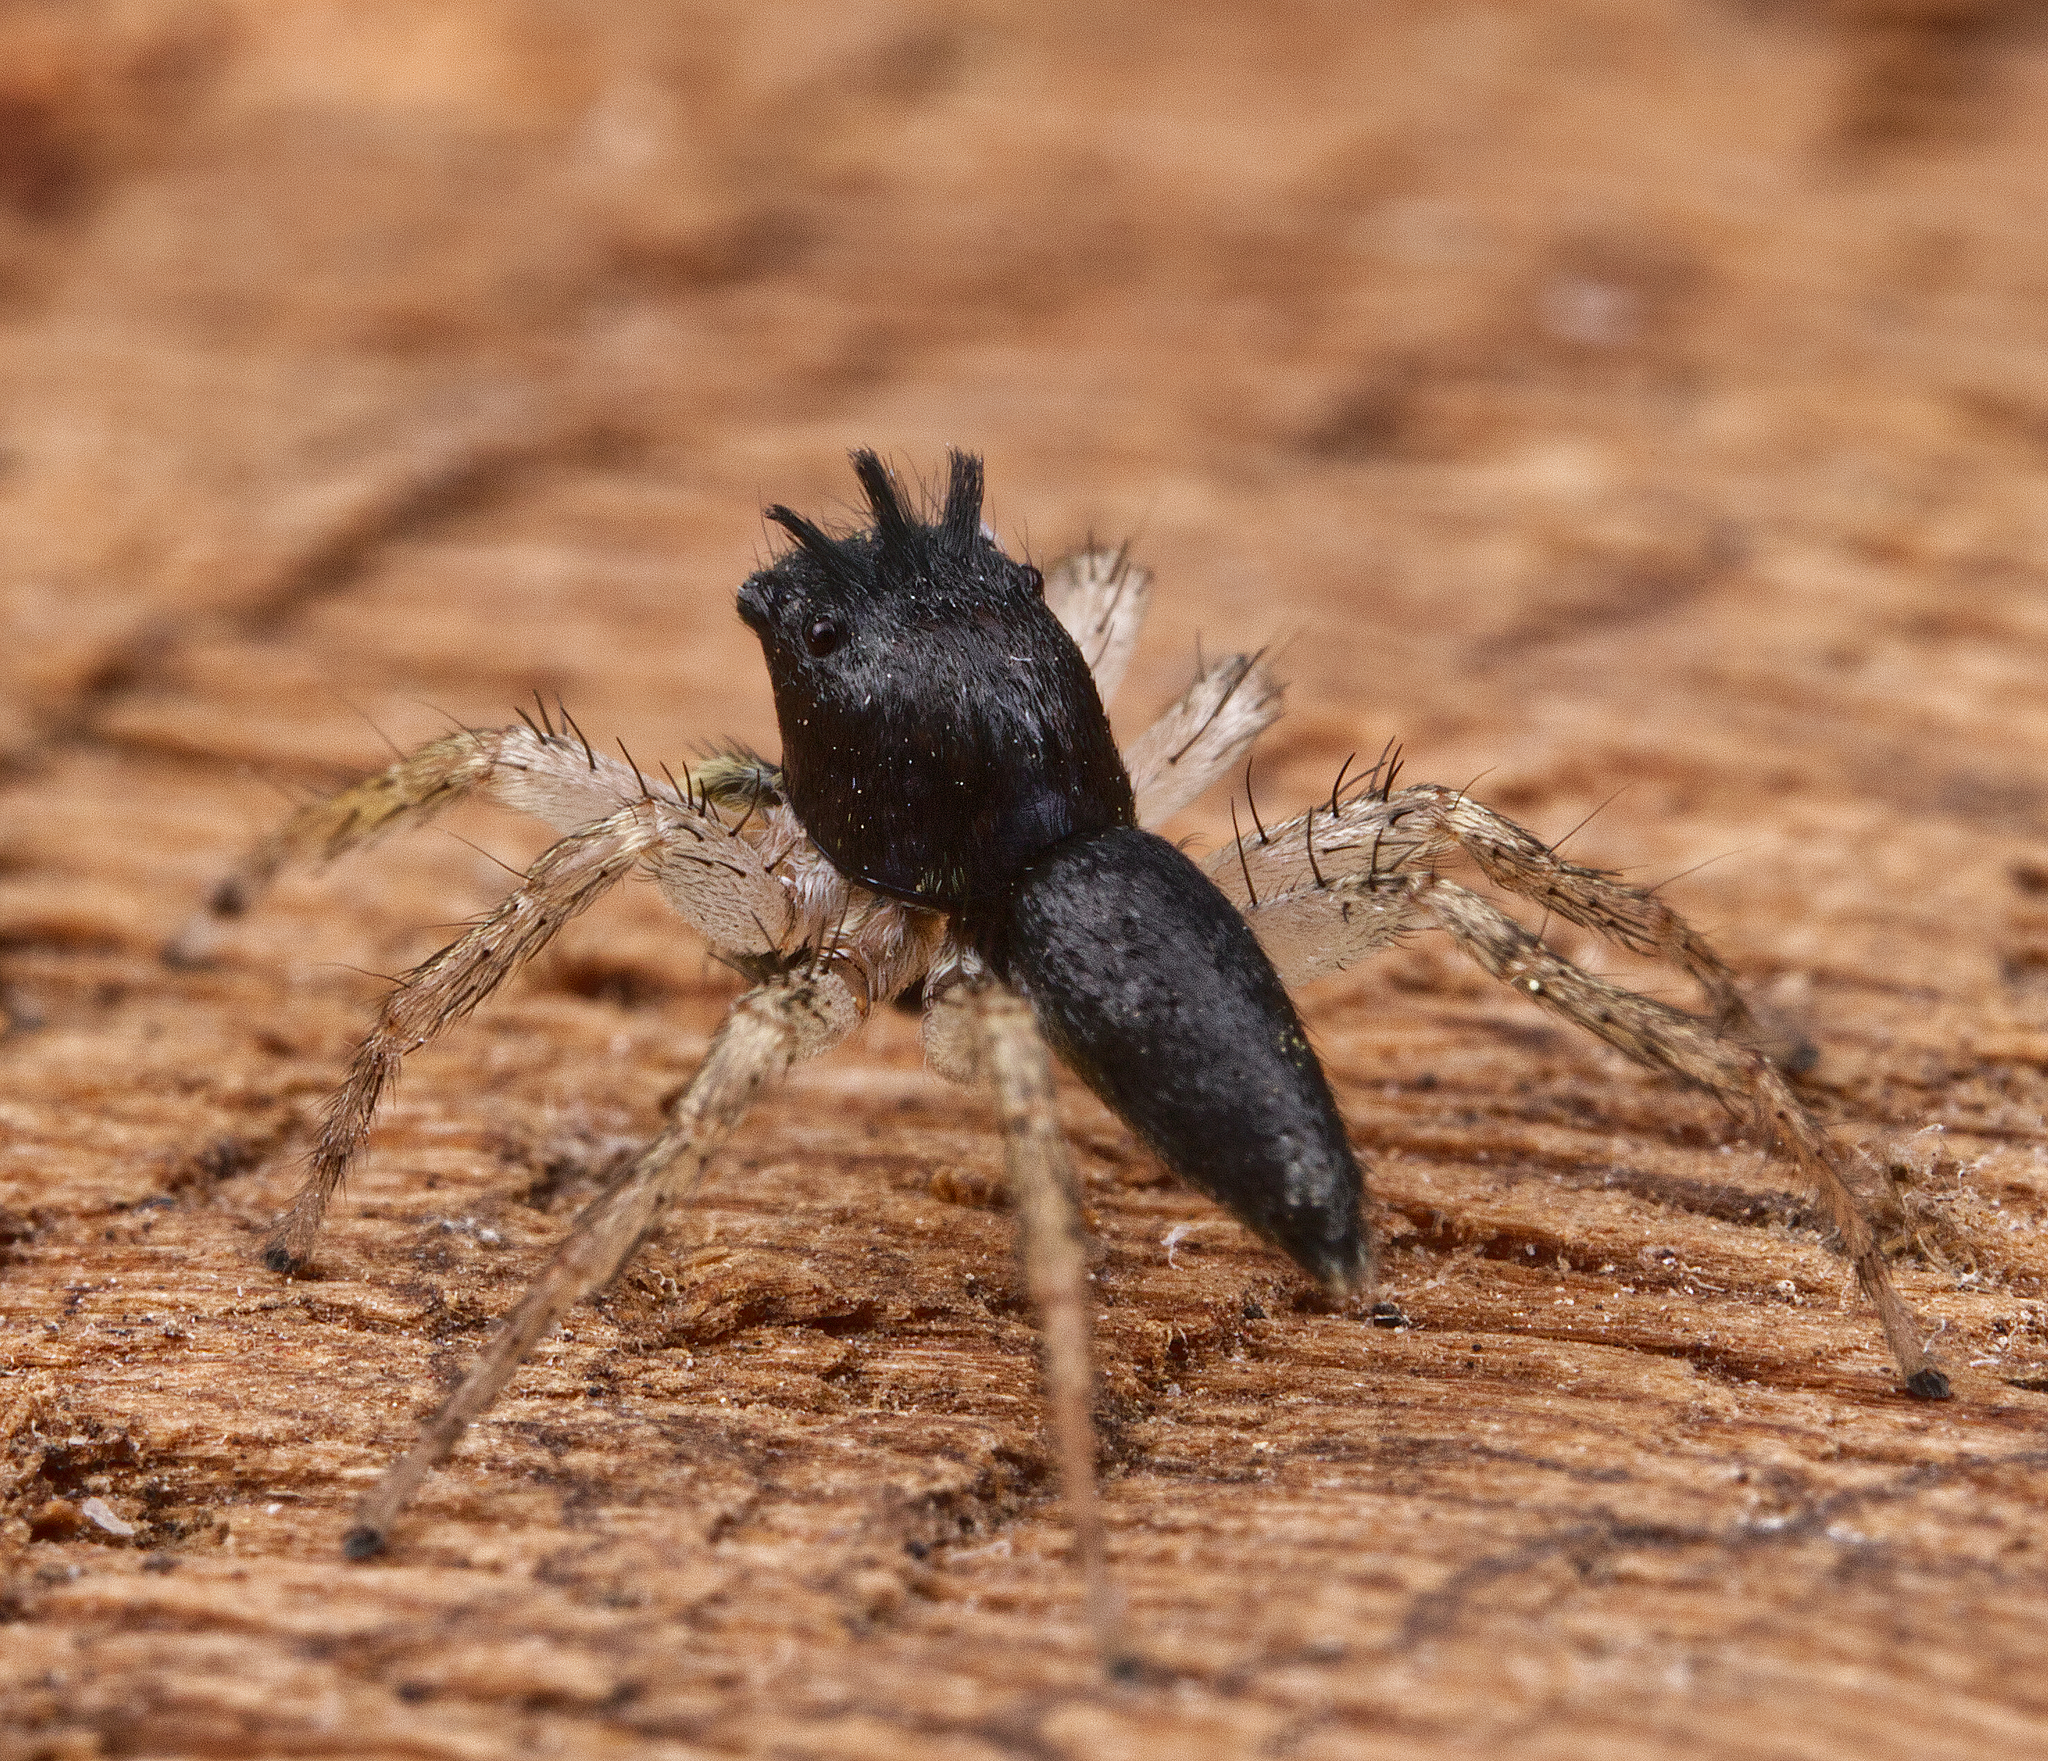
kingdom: Animalia
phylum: Arthropoda
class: Arachnida
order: Araneae
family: Salticidae
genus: Maevia
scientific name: Maevia inclemens
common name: Dimorphic jumper
